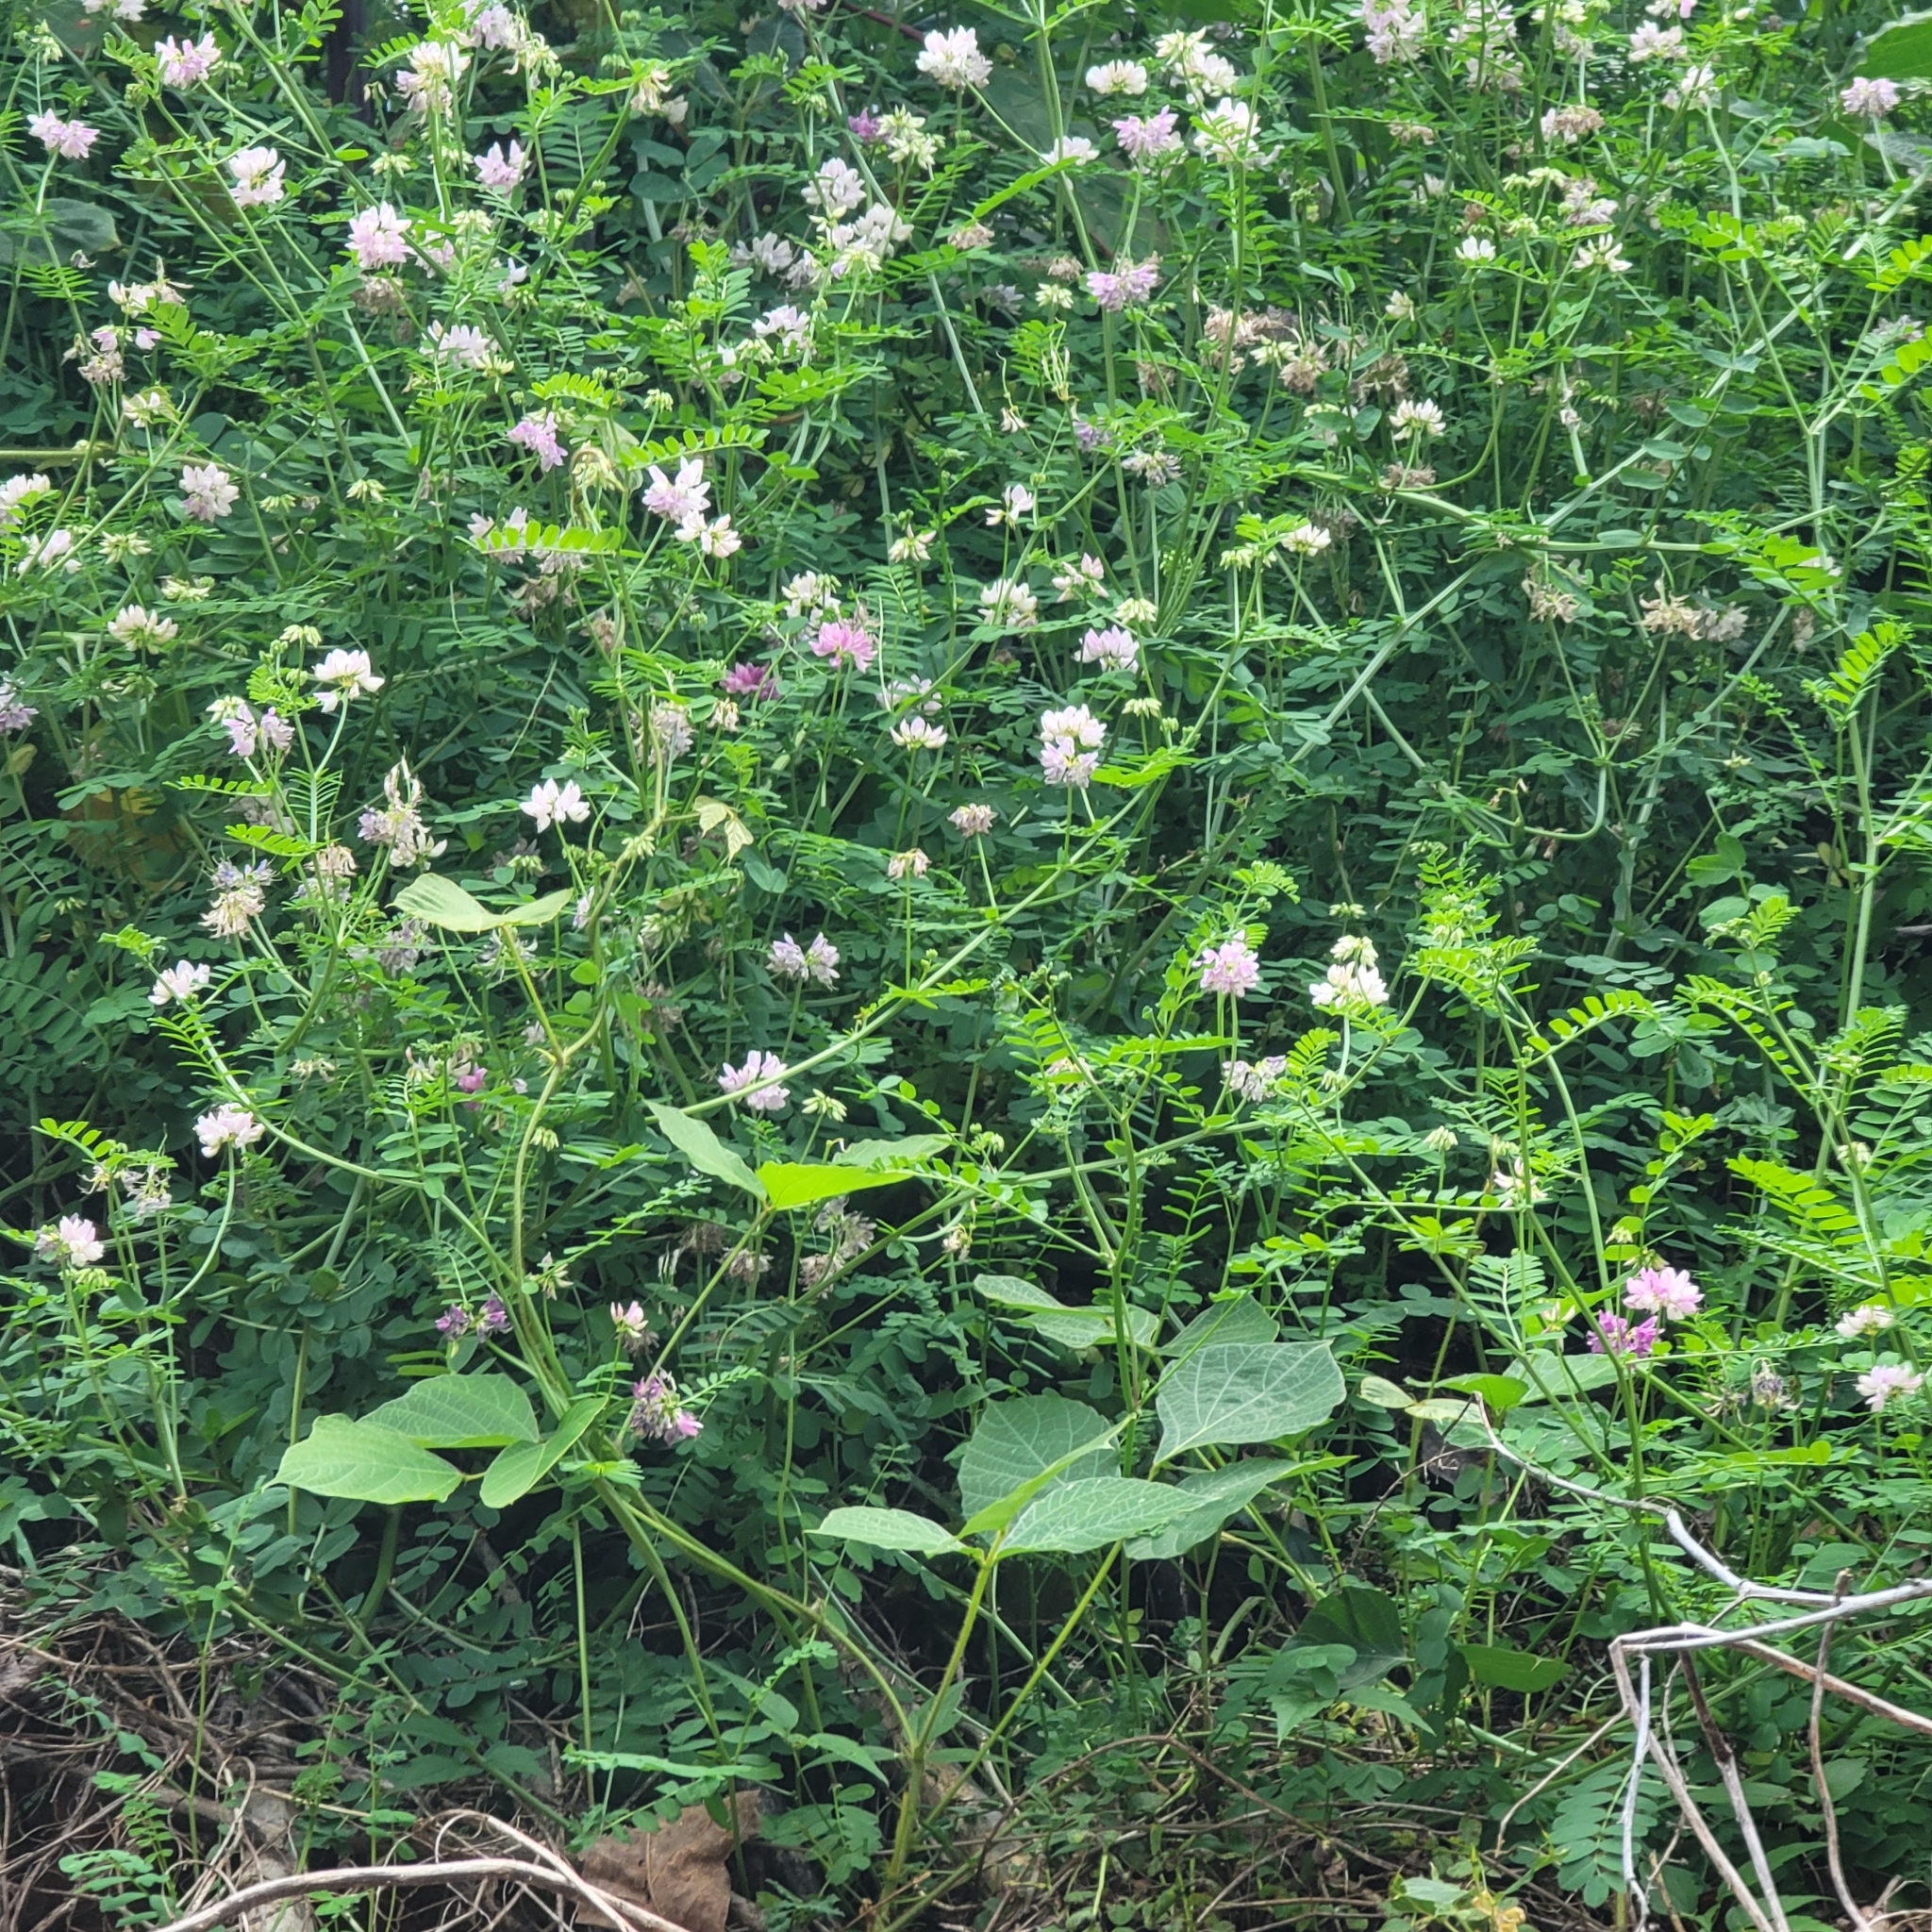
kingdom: Plantae
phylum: Tracheophyta
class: Magnoliopsida
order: Fabales
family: Fabaceae
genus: Coronilla
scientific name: Coronilla varia
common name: Crownvetch
